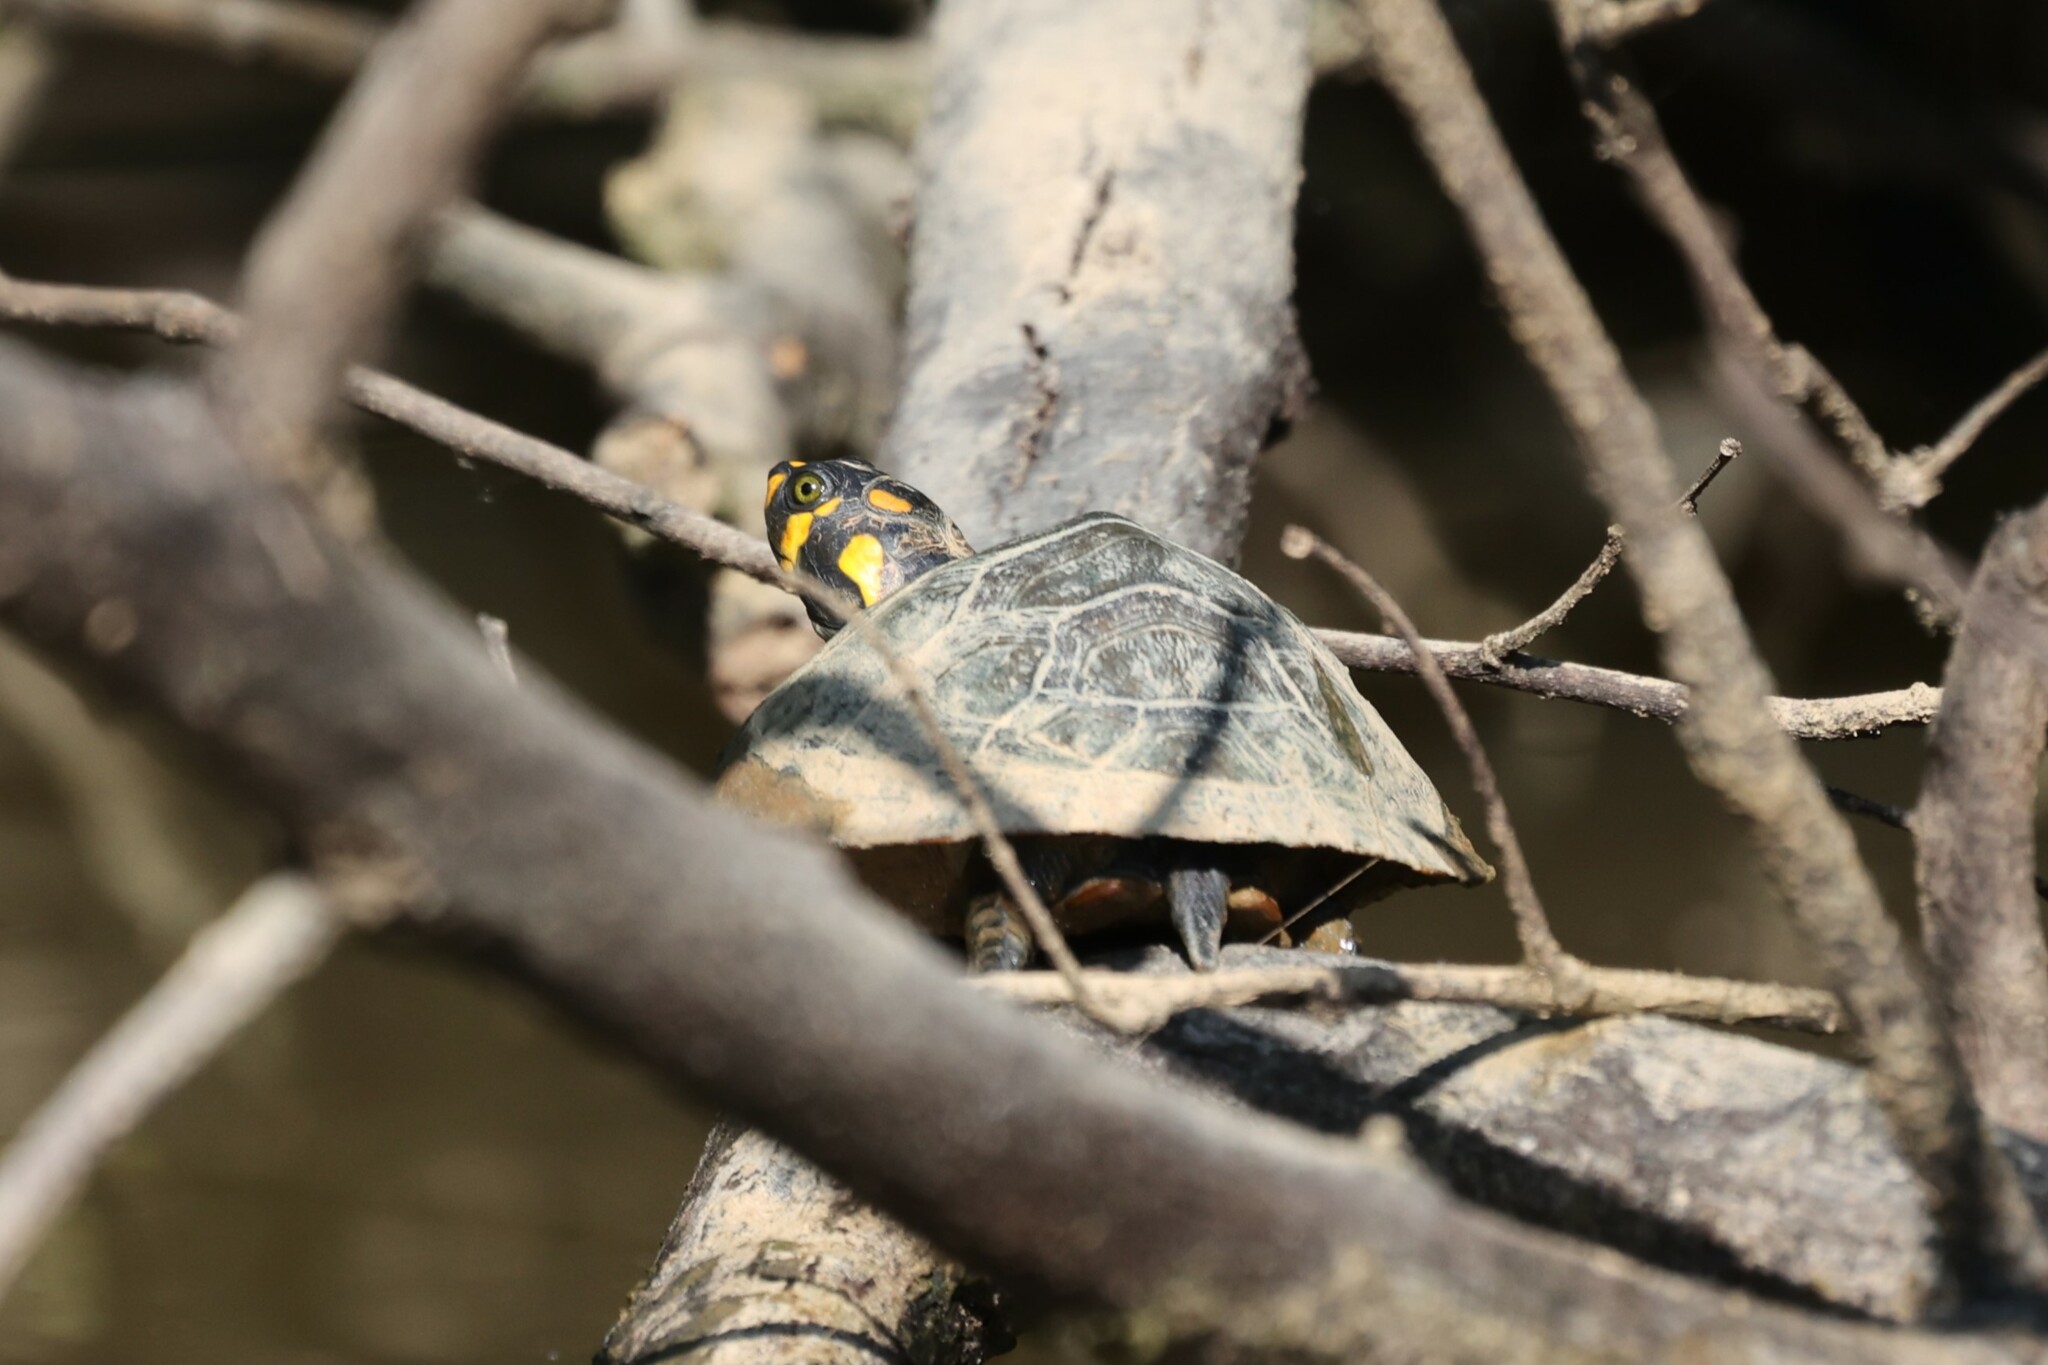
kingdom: Animalia
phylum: Chordata
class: Testudines
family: Podocnemididae
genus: Podocnemis
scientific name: Podocnemis unifilis
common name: Yellow-spotted amazon river turtle
